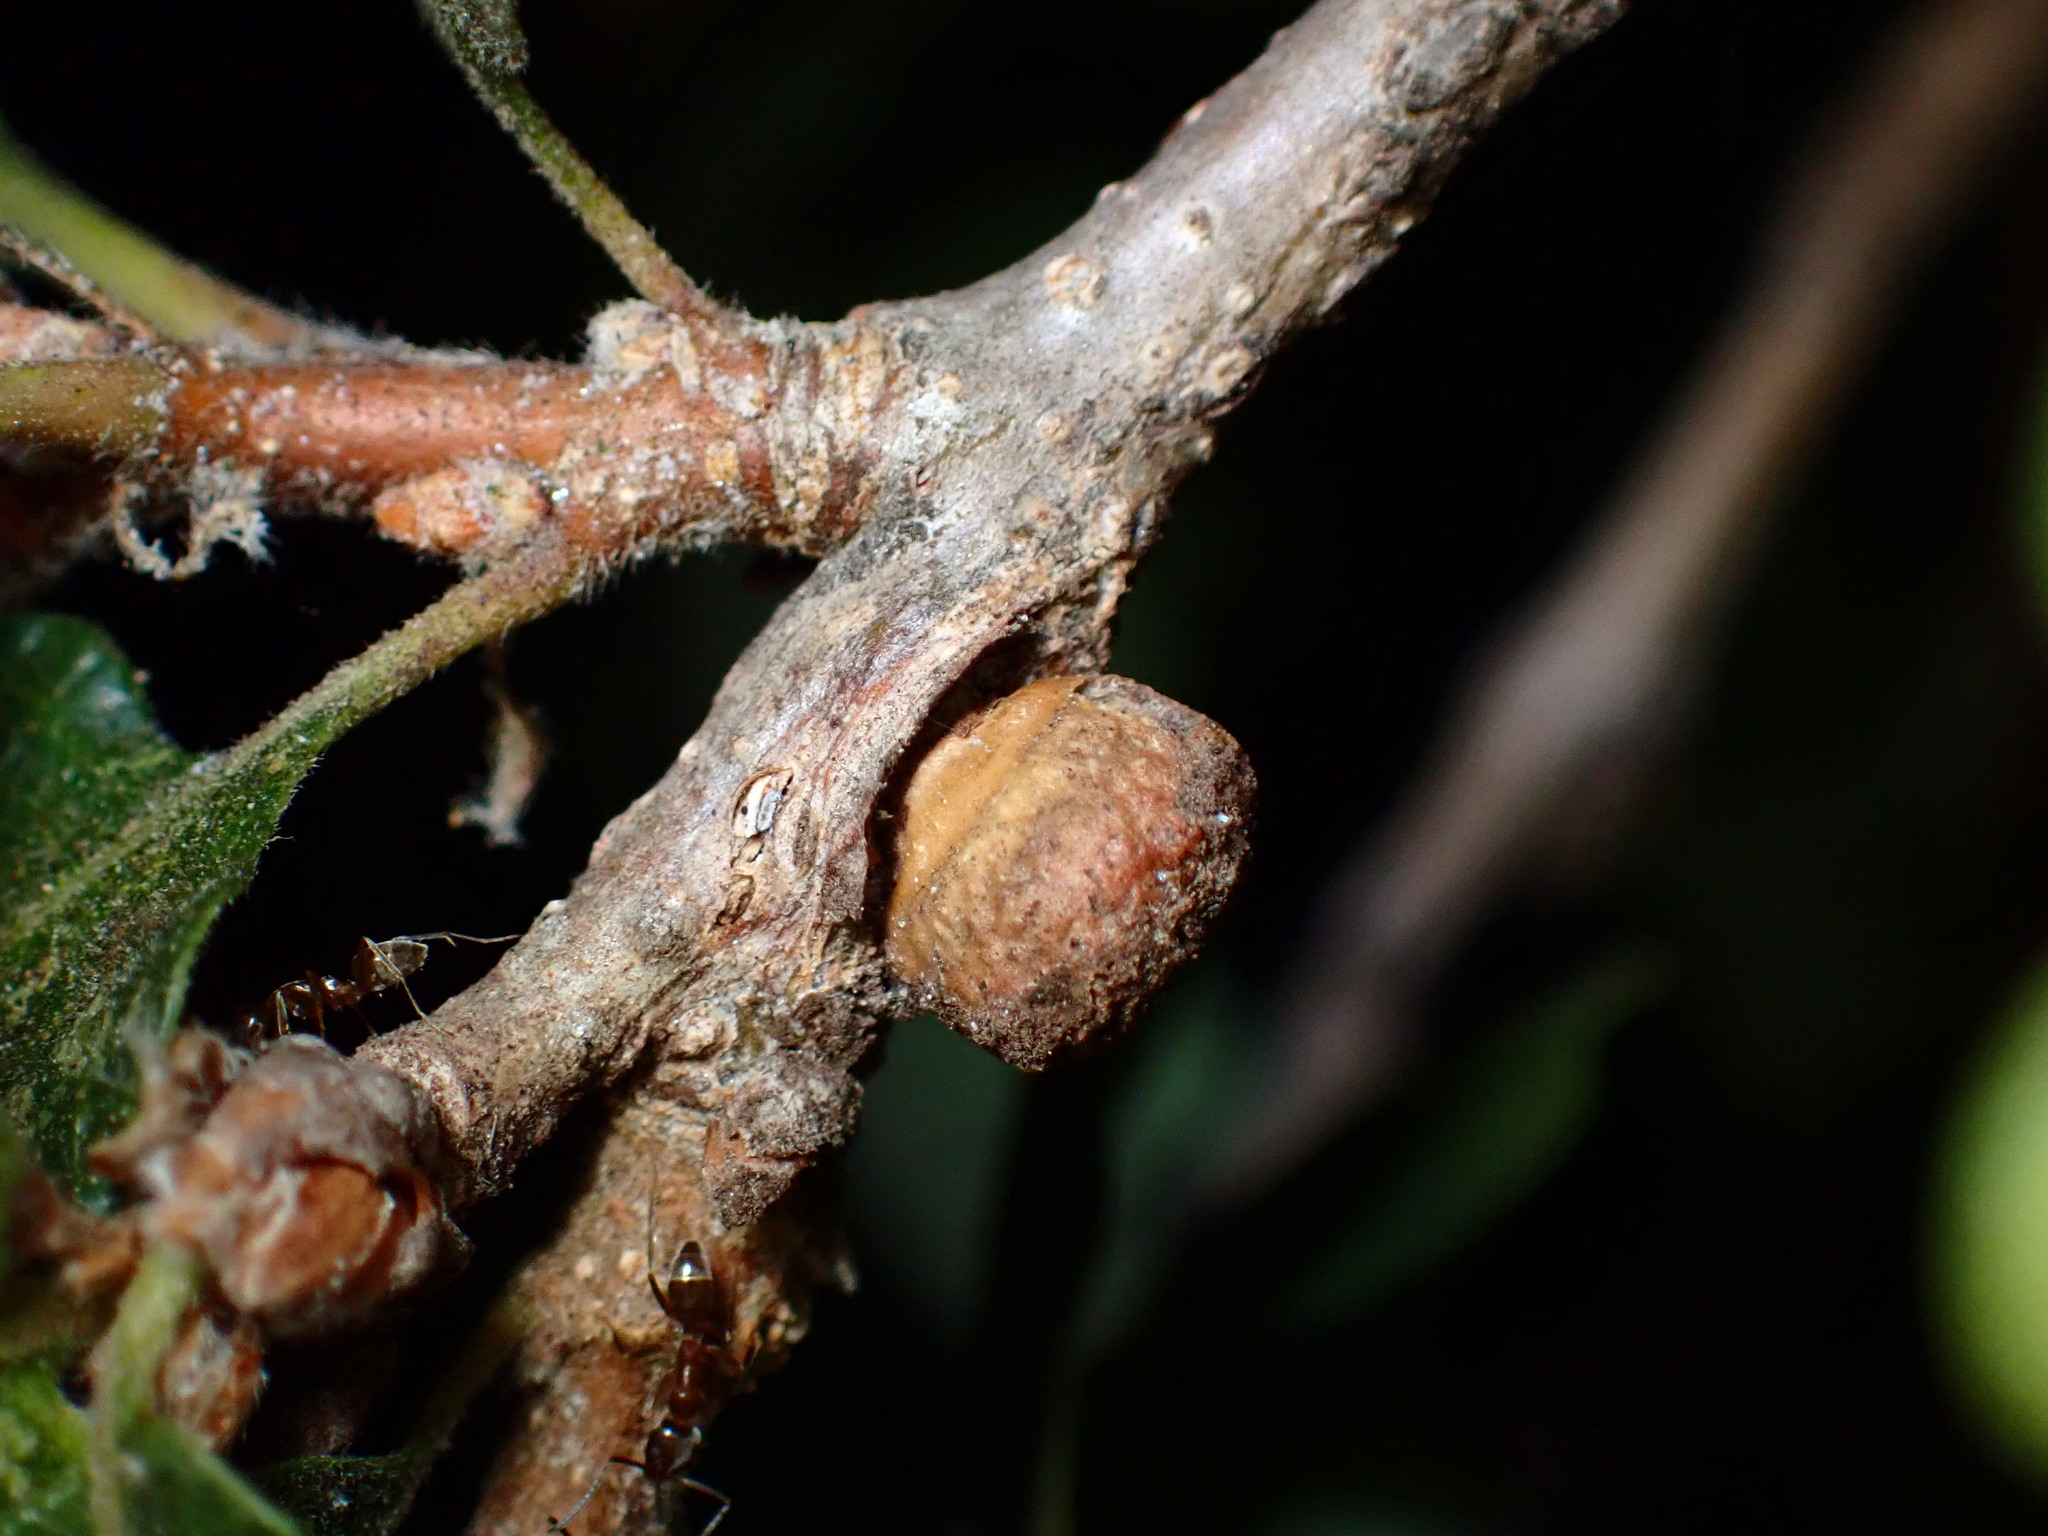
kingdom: Animalia
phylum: Arthropoda
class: Insecta
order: Hymenoptera
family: Cynipidae
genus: Disholcaspis
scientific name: Disholcaspis
